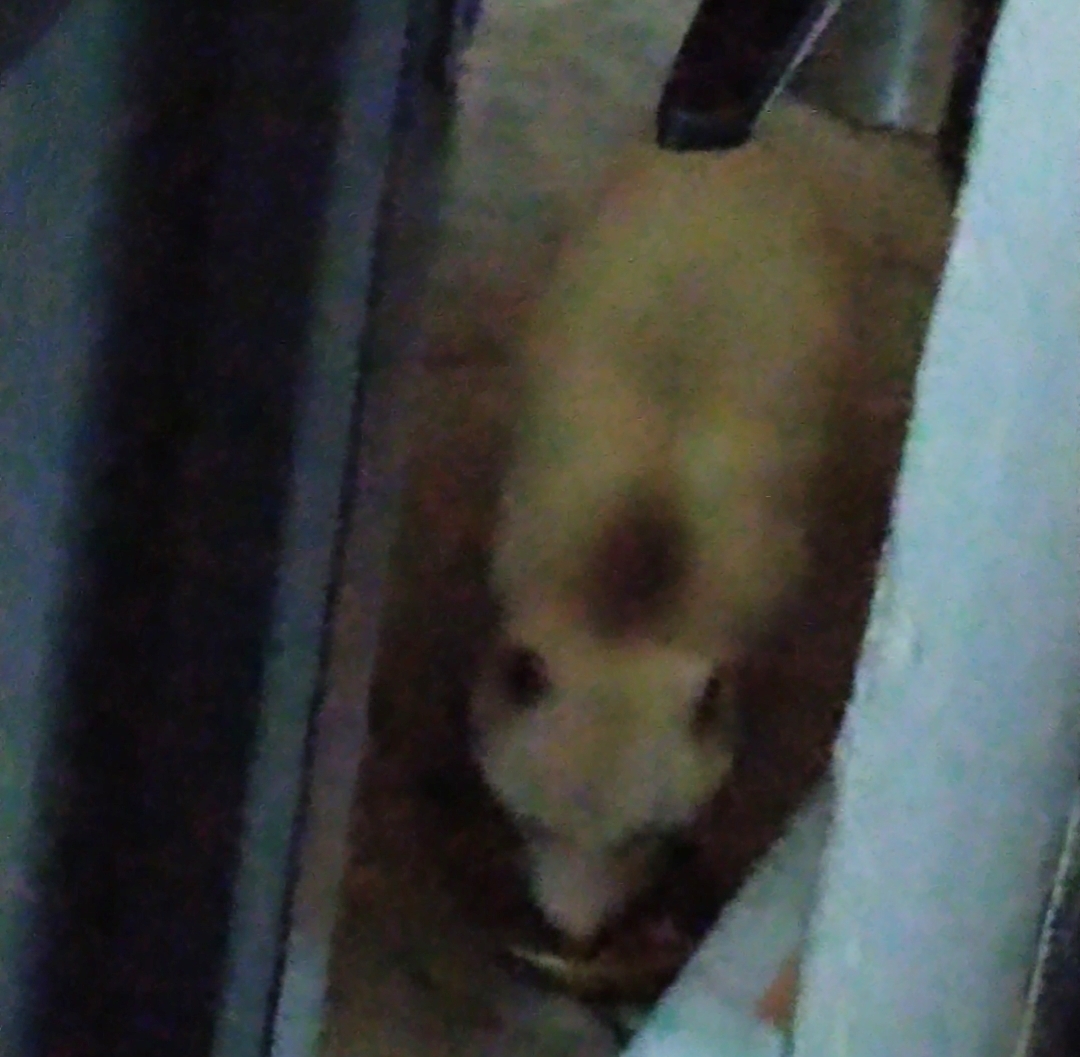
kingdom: Animalia
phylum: Chordata
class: Mammalia
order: Carnivora
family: Procyonidae
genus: Procyon
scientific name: Procyon lotor
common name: Raccoon
